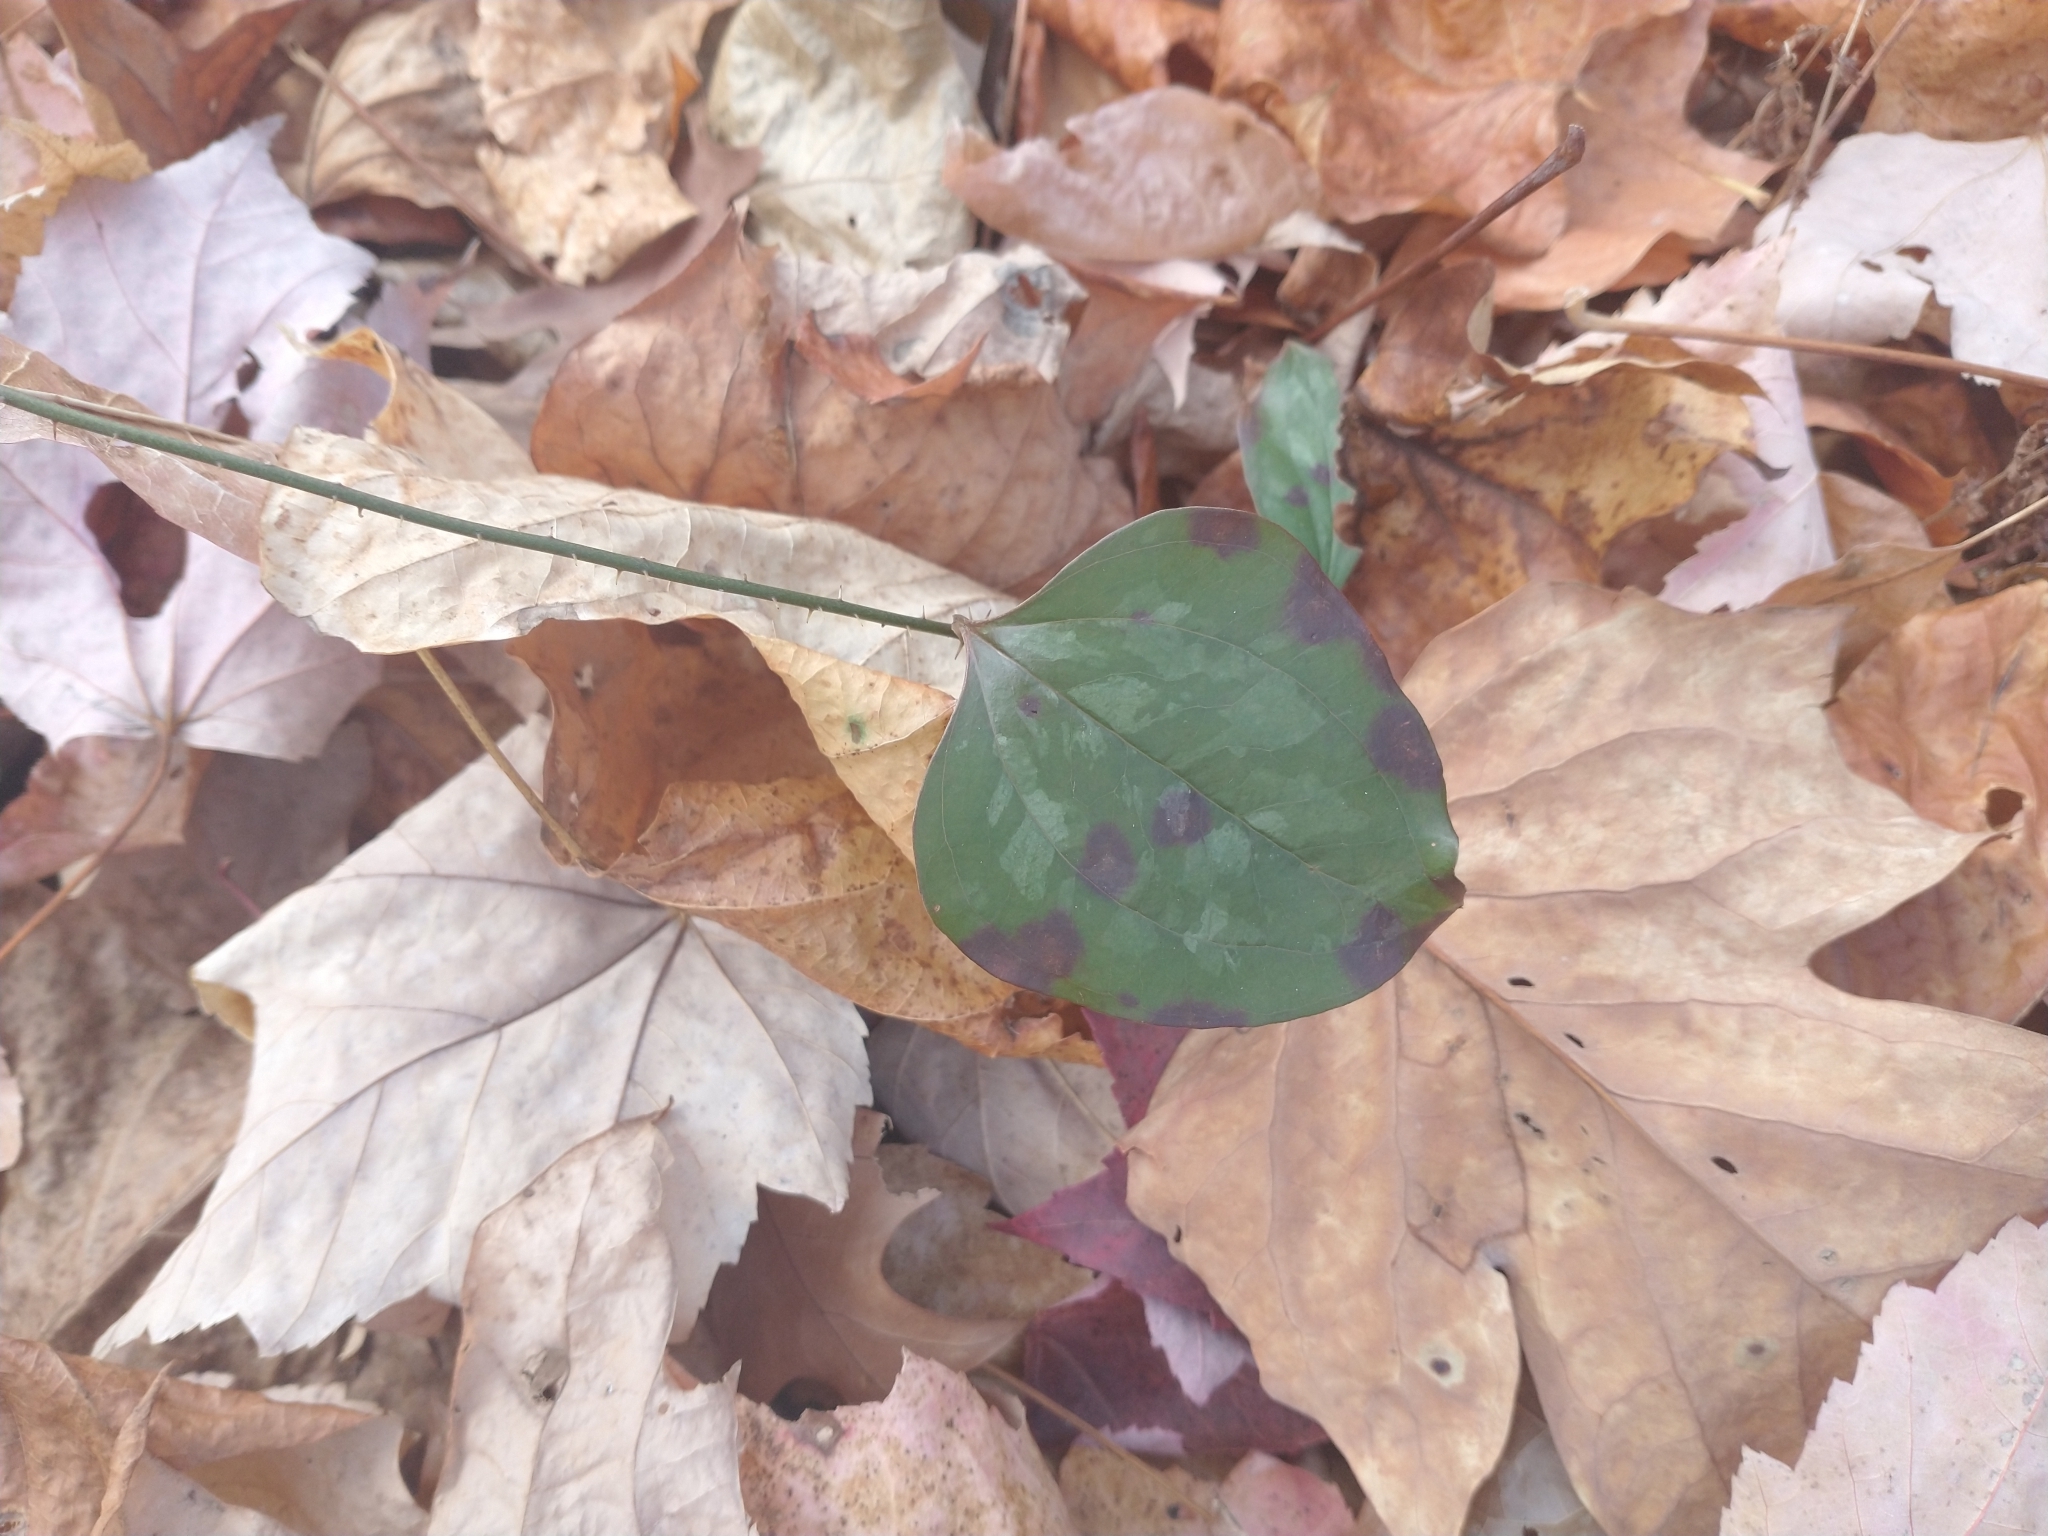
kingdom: Plantae
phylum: Tracheophyta
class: Liliopsida
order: Liliales
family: Smilacaceae
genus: Smilax
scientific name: Smilax rotundifolia
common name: Bullbriar
